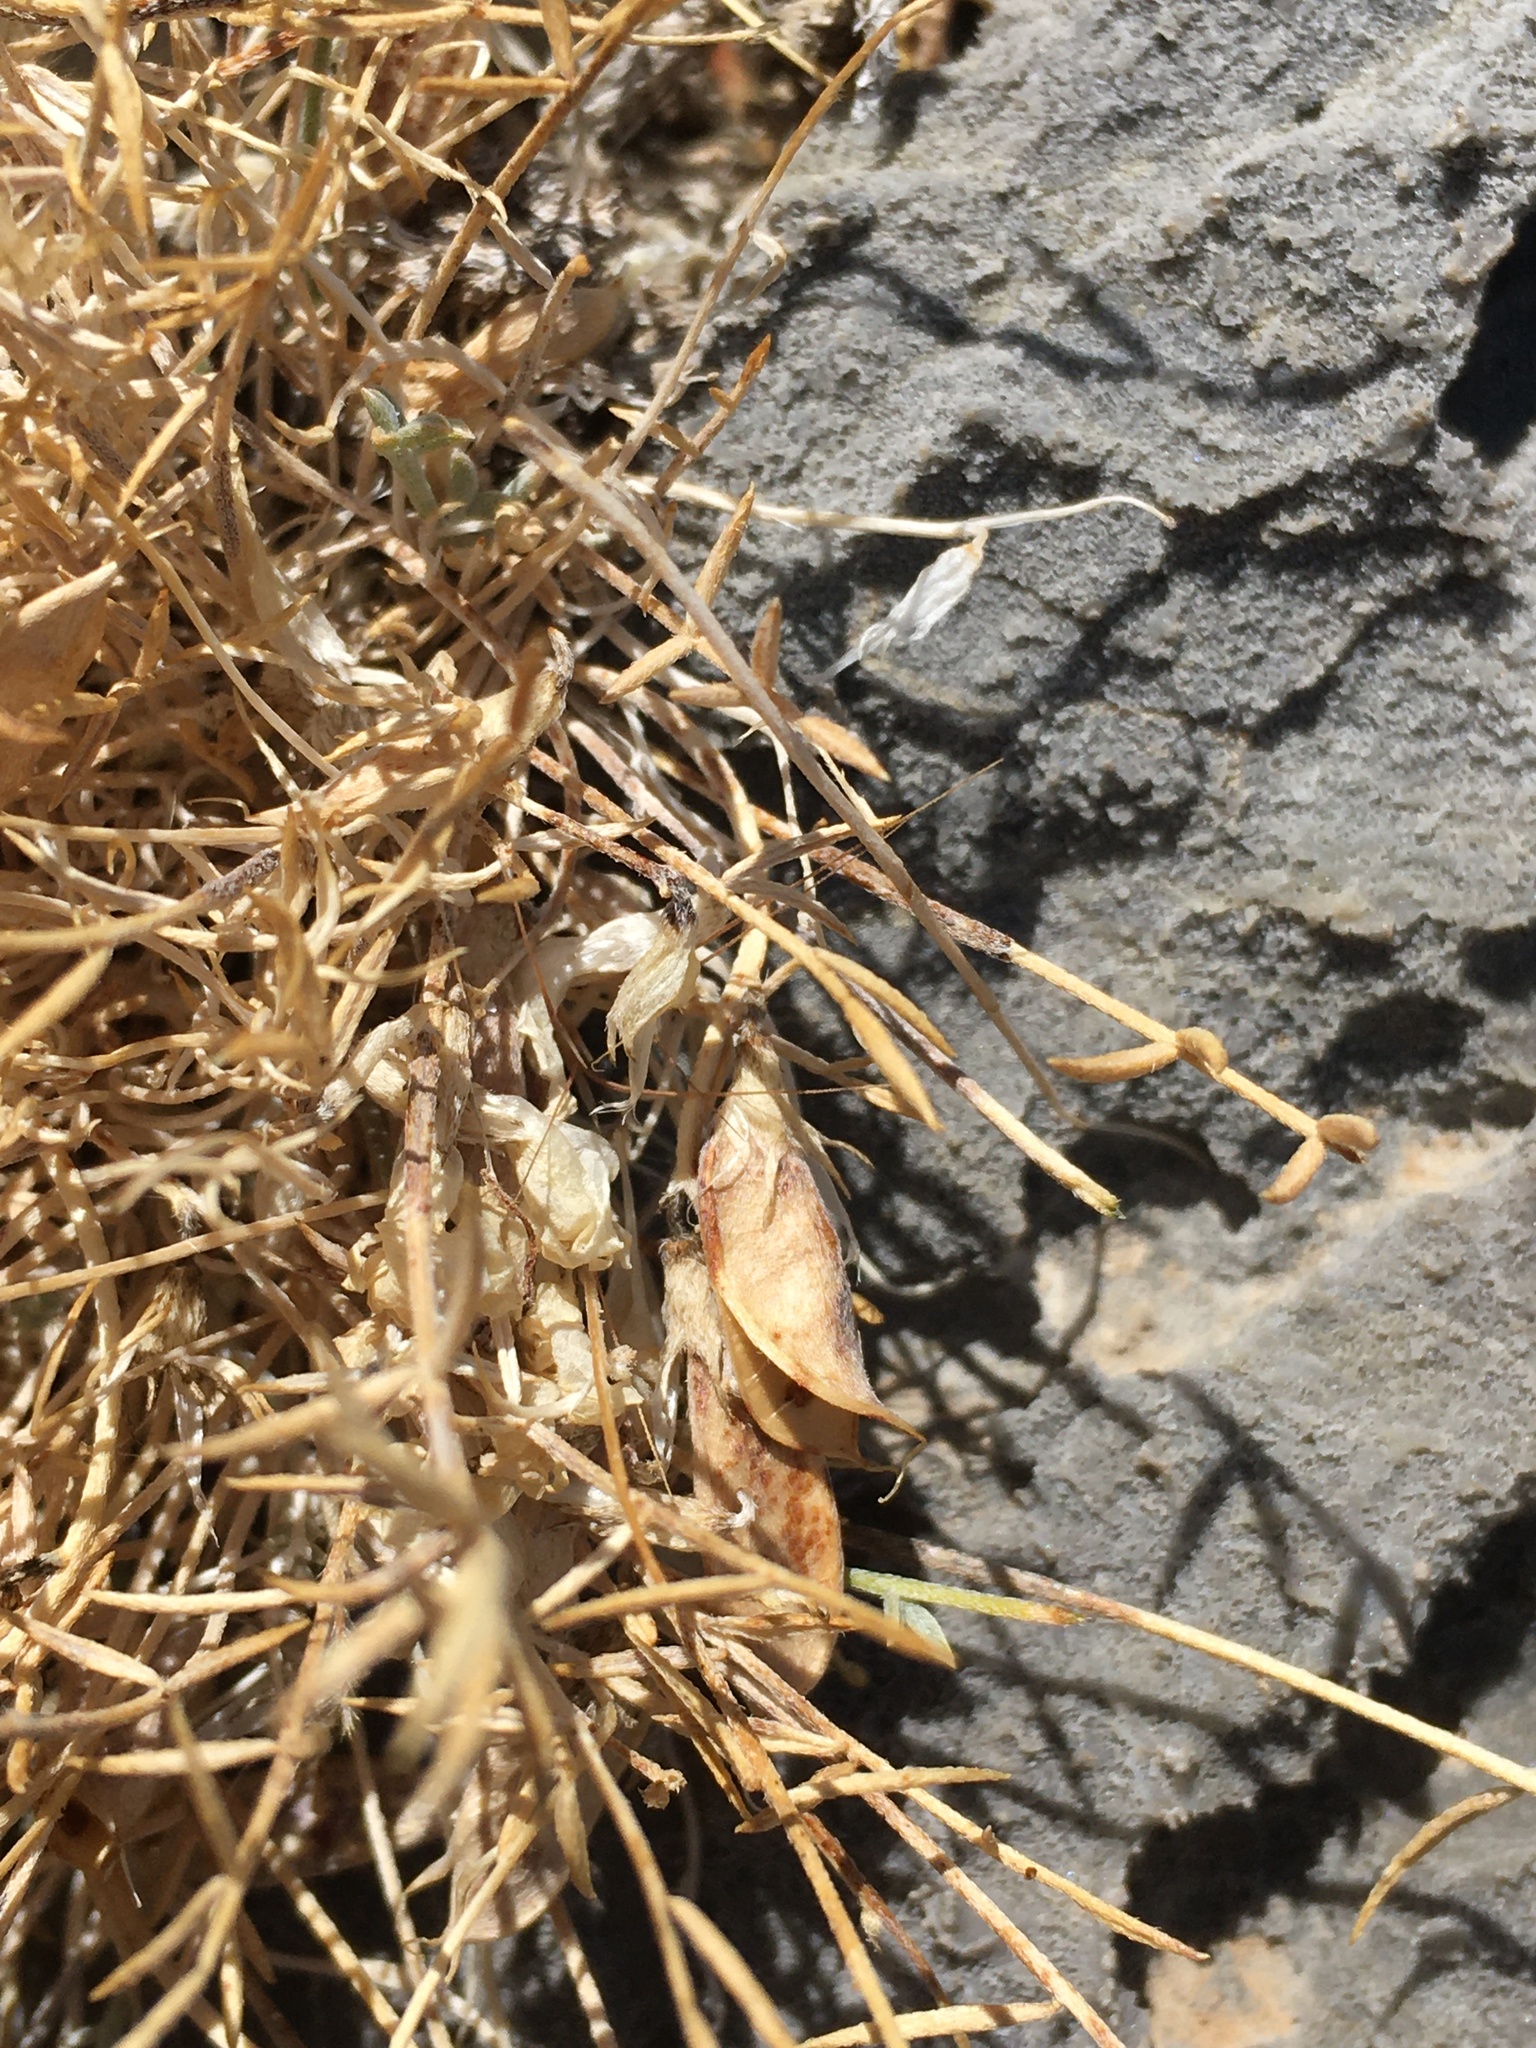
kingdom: Plantae
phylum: Tracheophyta
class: Magnoliopsida
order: Fabales
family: Fabaceae
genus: Astragalus
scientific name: Astragalus panamintensis
